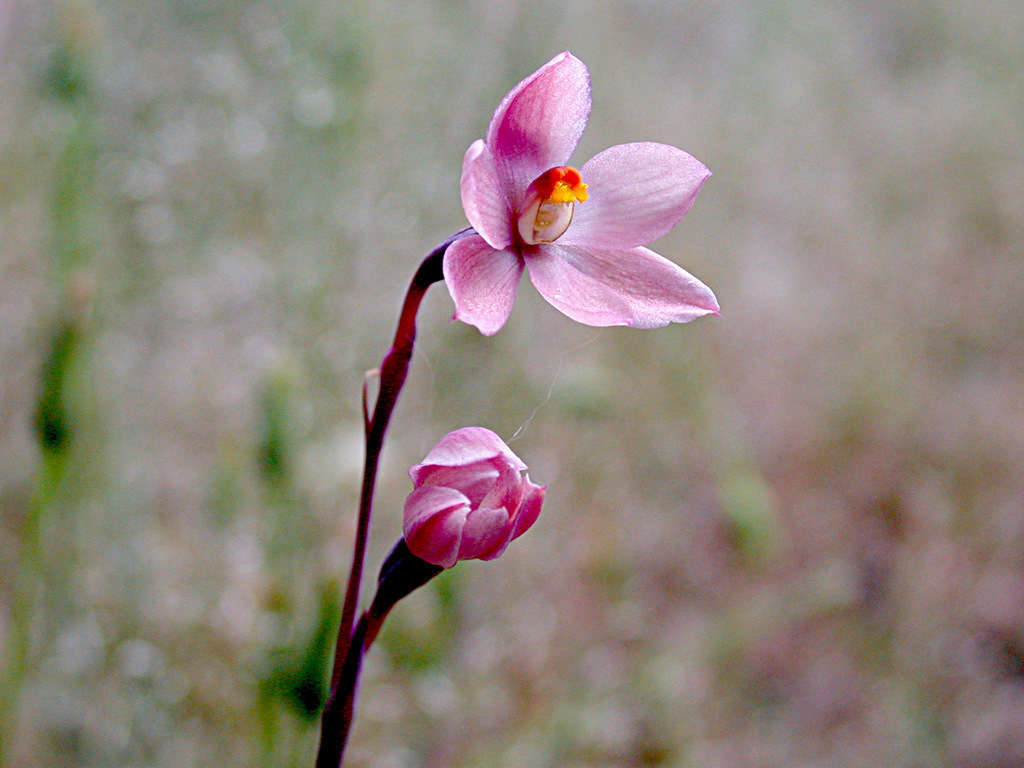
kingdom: Plantae
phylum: Tracheophyta
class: Liliopsida
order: Asparagales
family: Orchidaceae
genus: Thelymitra
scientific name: Thelymitra rubra
